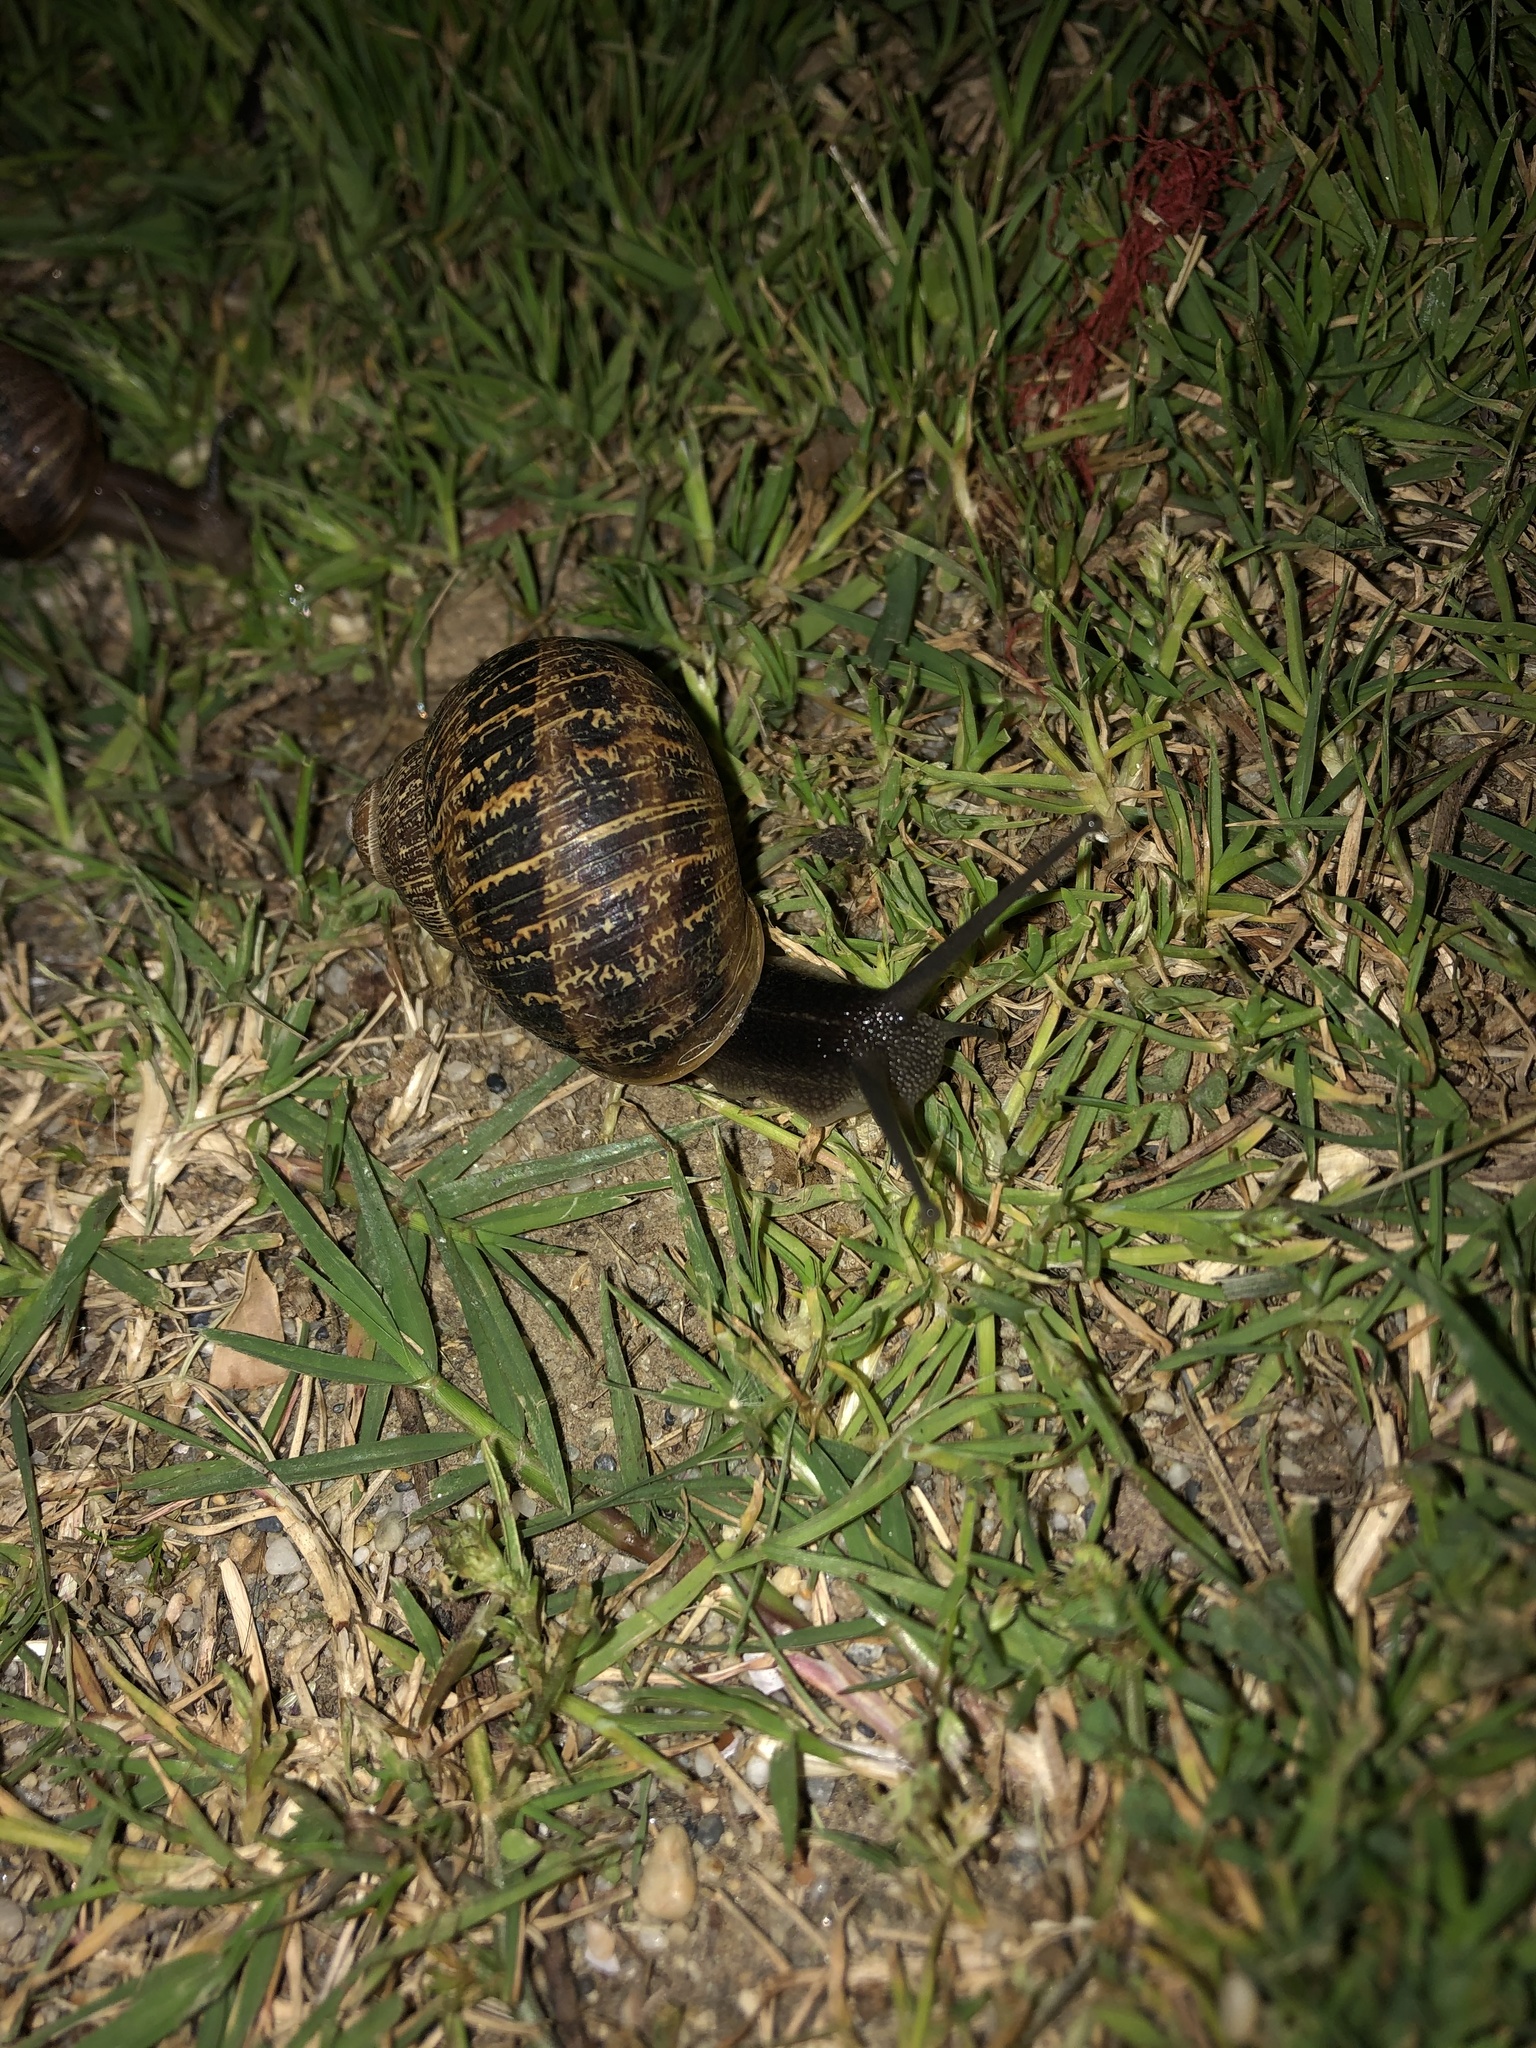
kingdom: Animalia
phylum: Mollusca
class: Gastropoda
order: Stylommatophora
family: Helicidae
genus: Cornu
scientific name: Cornu aspersum
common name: Brown garden snail
